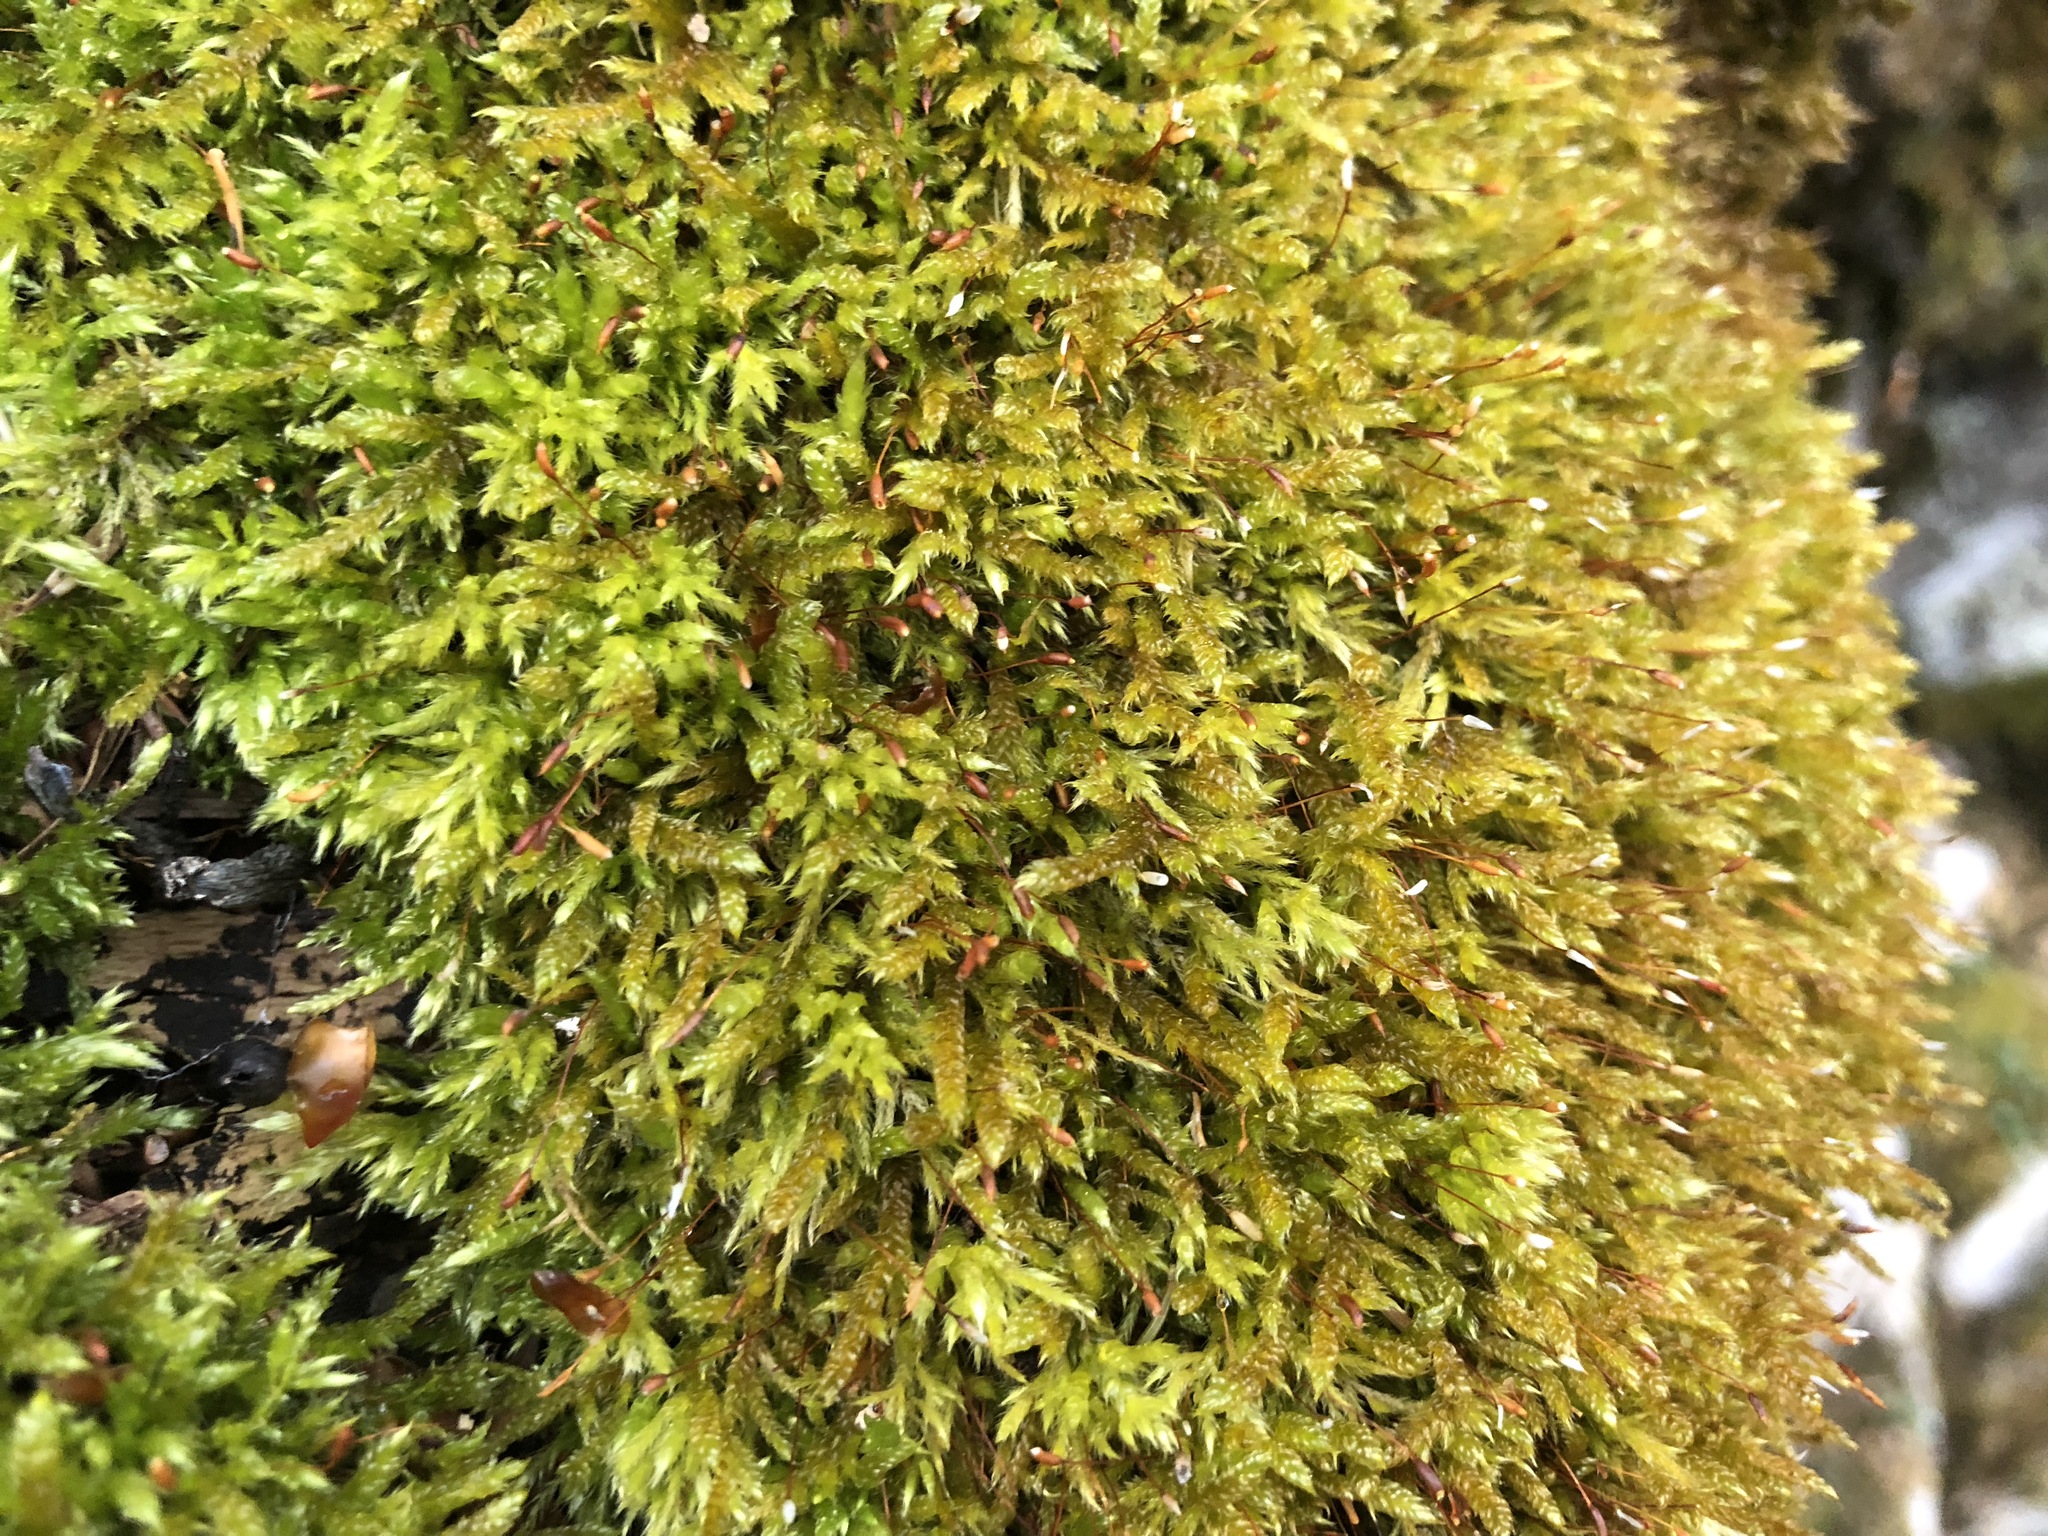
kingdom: Plantae
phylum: Bryophyta
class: Bryopsida
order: Hypnales
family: Hypnaceae
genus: Hypnum
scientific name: Hypnum cupressiforme
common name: Cypress-leaved plait-moss
